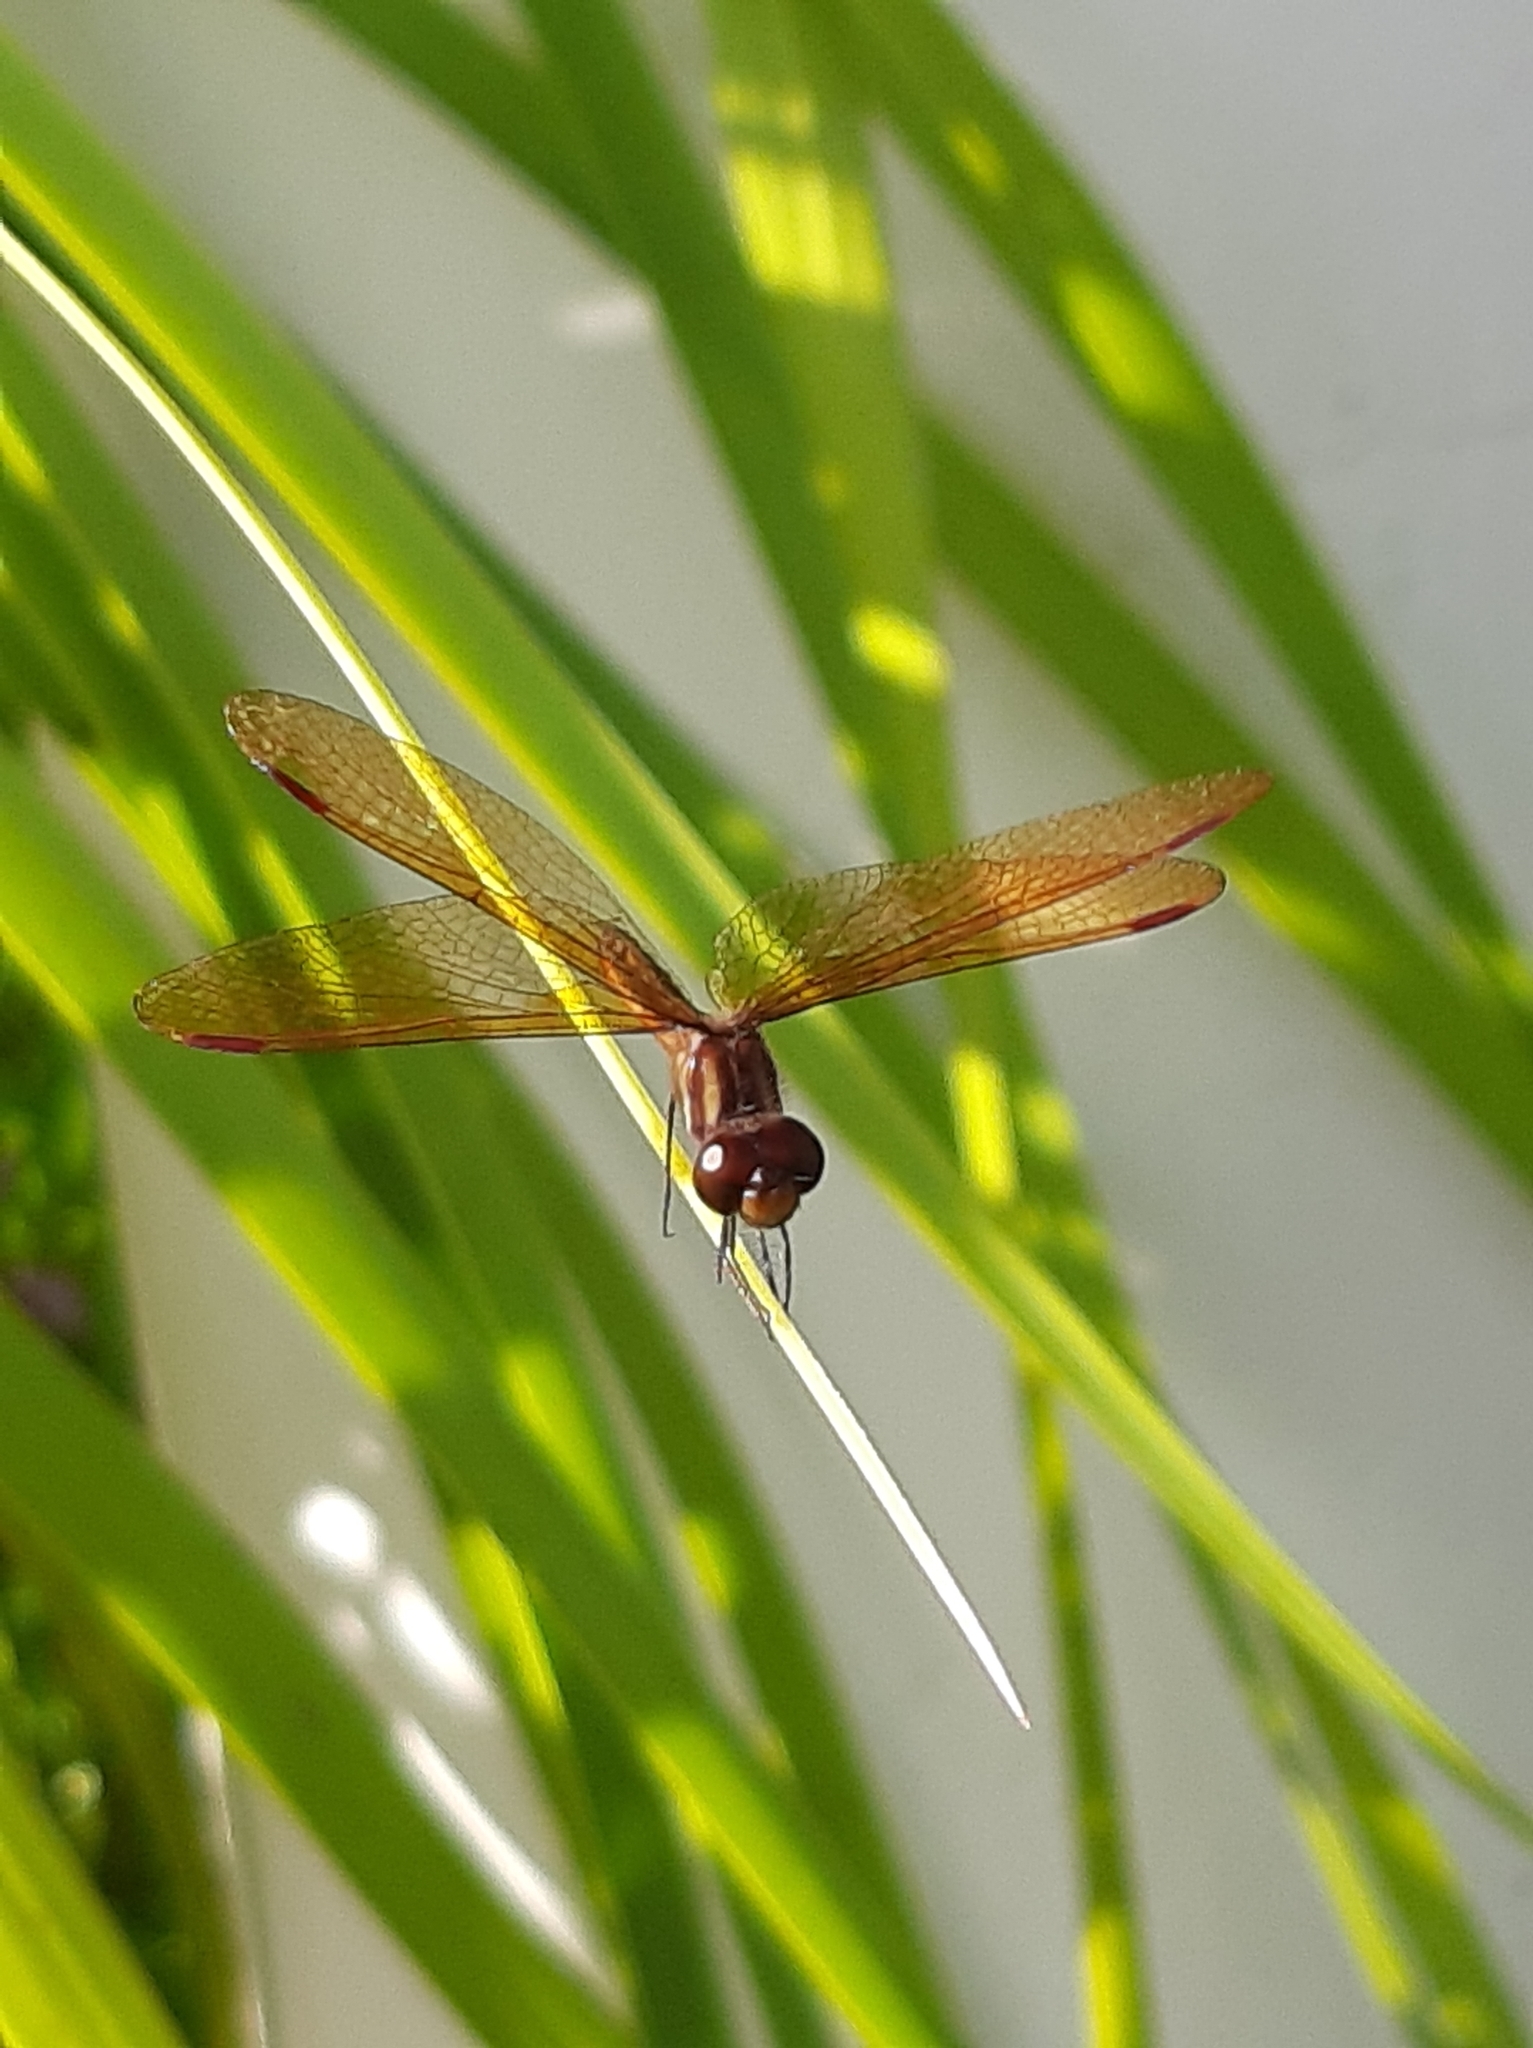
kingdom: Animalia
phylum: Arthropoda
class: Insecta
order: Odonata
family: Libellulidae
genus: Perithemis
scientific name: Perithemis domitia
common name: Slough amberwing
